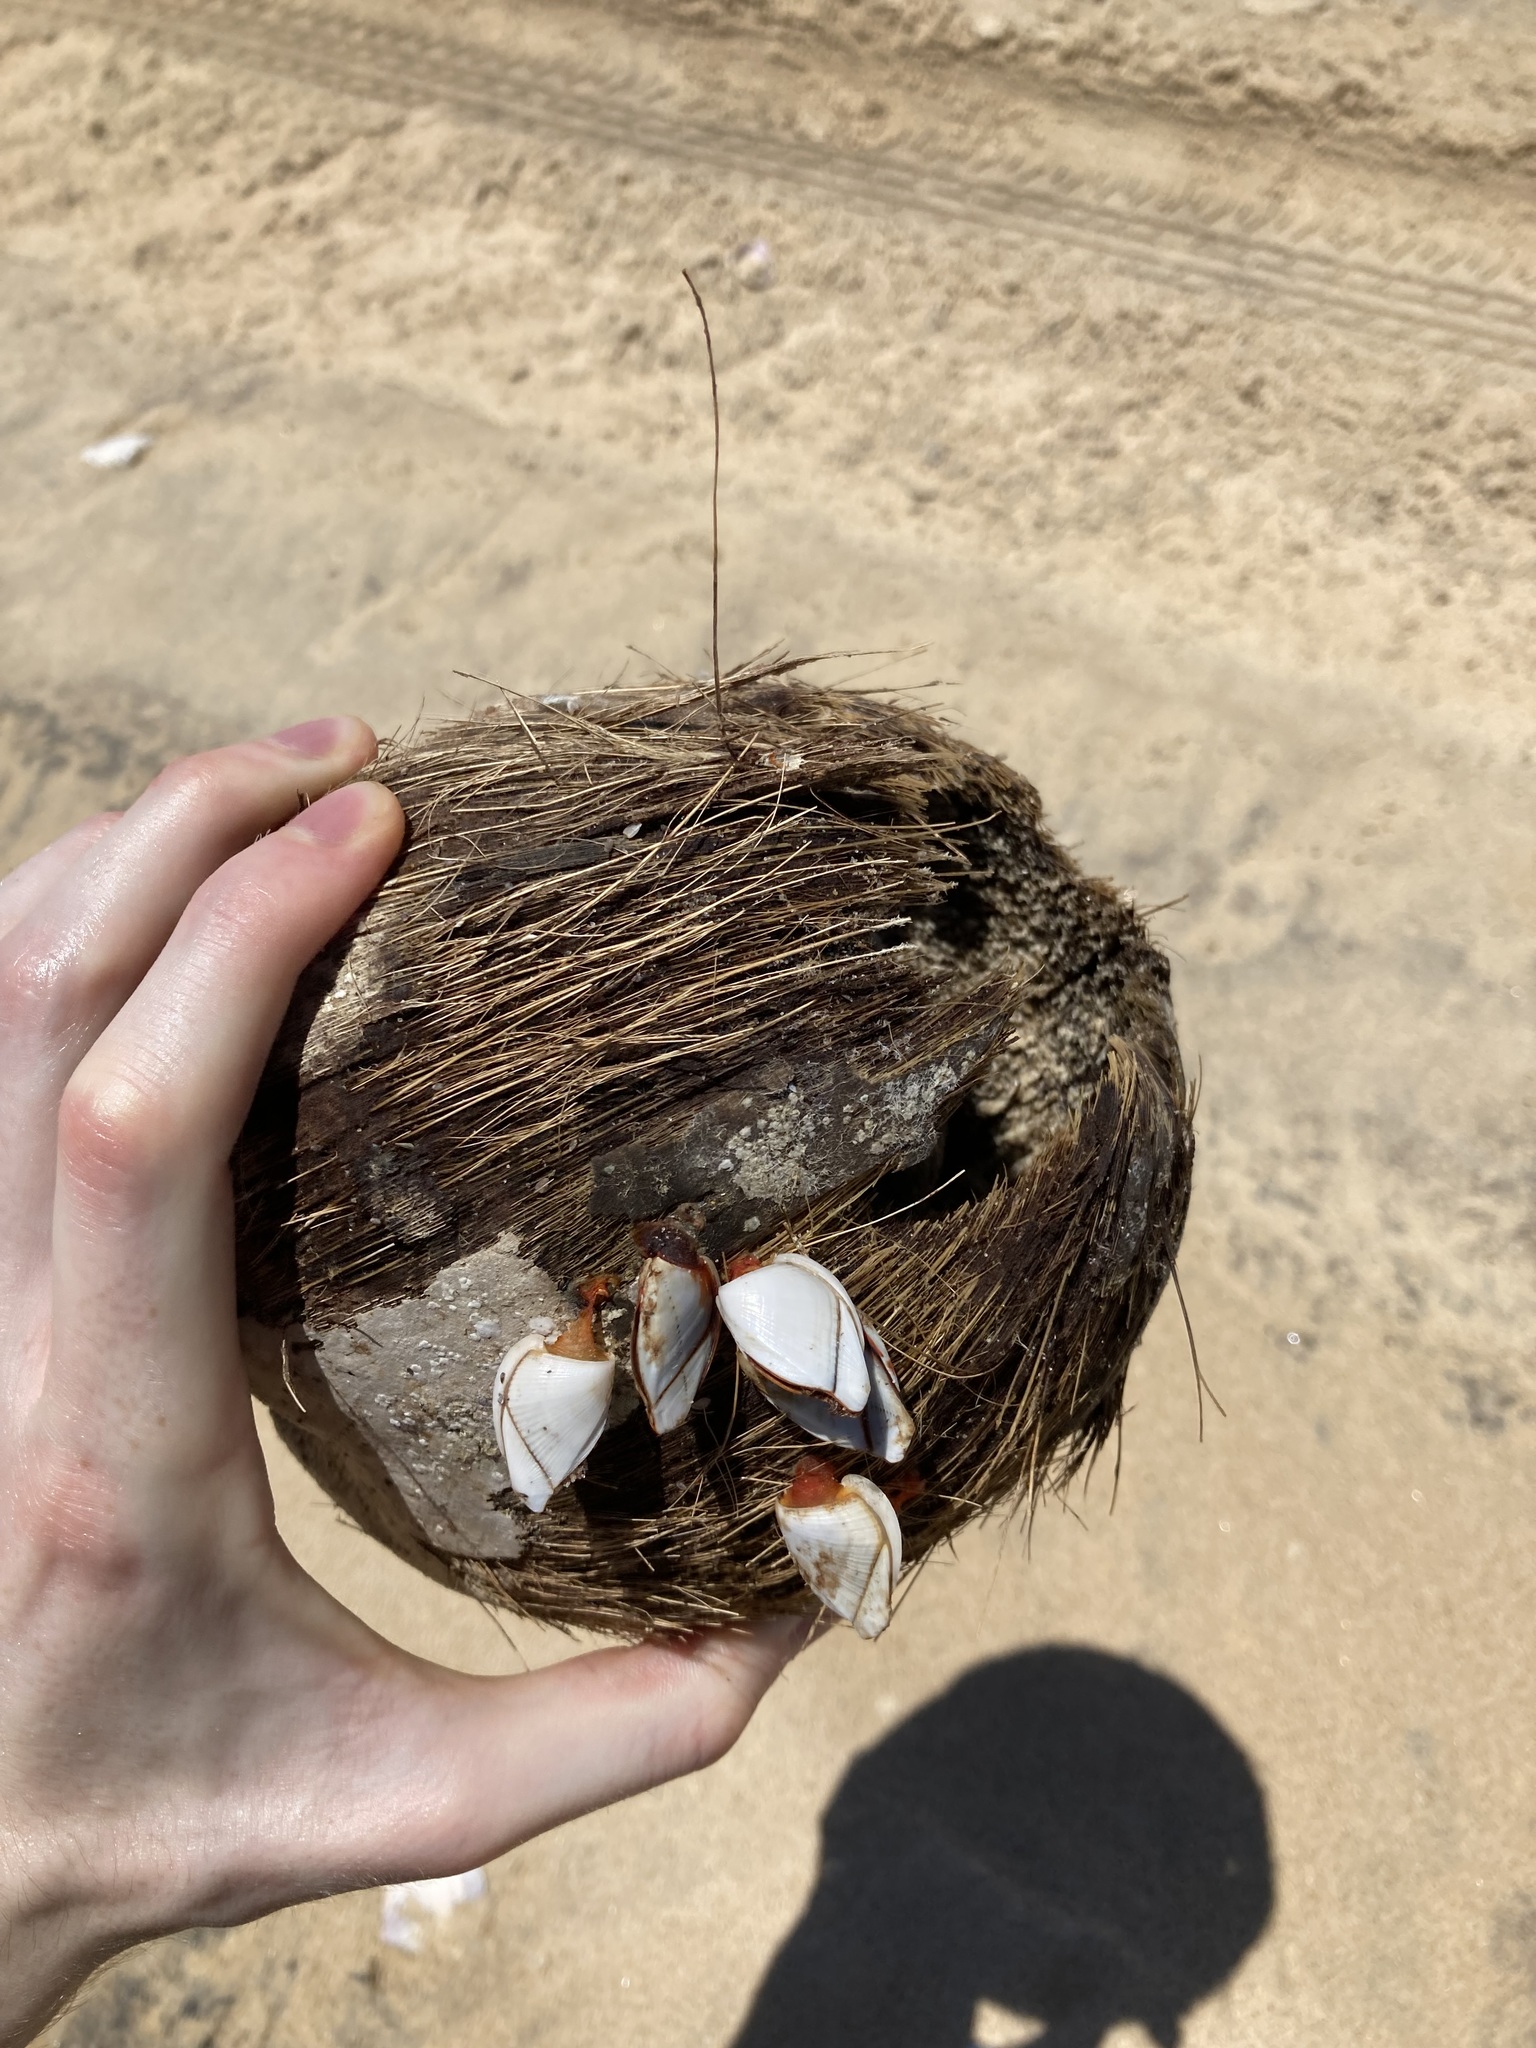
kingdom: Animalia
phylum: Arthropoda
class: Maxillopoda
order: Pedunculata
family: Lepadidae
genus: Lepas
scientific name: Lepas indica
